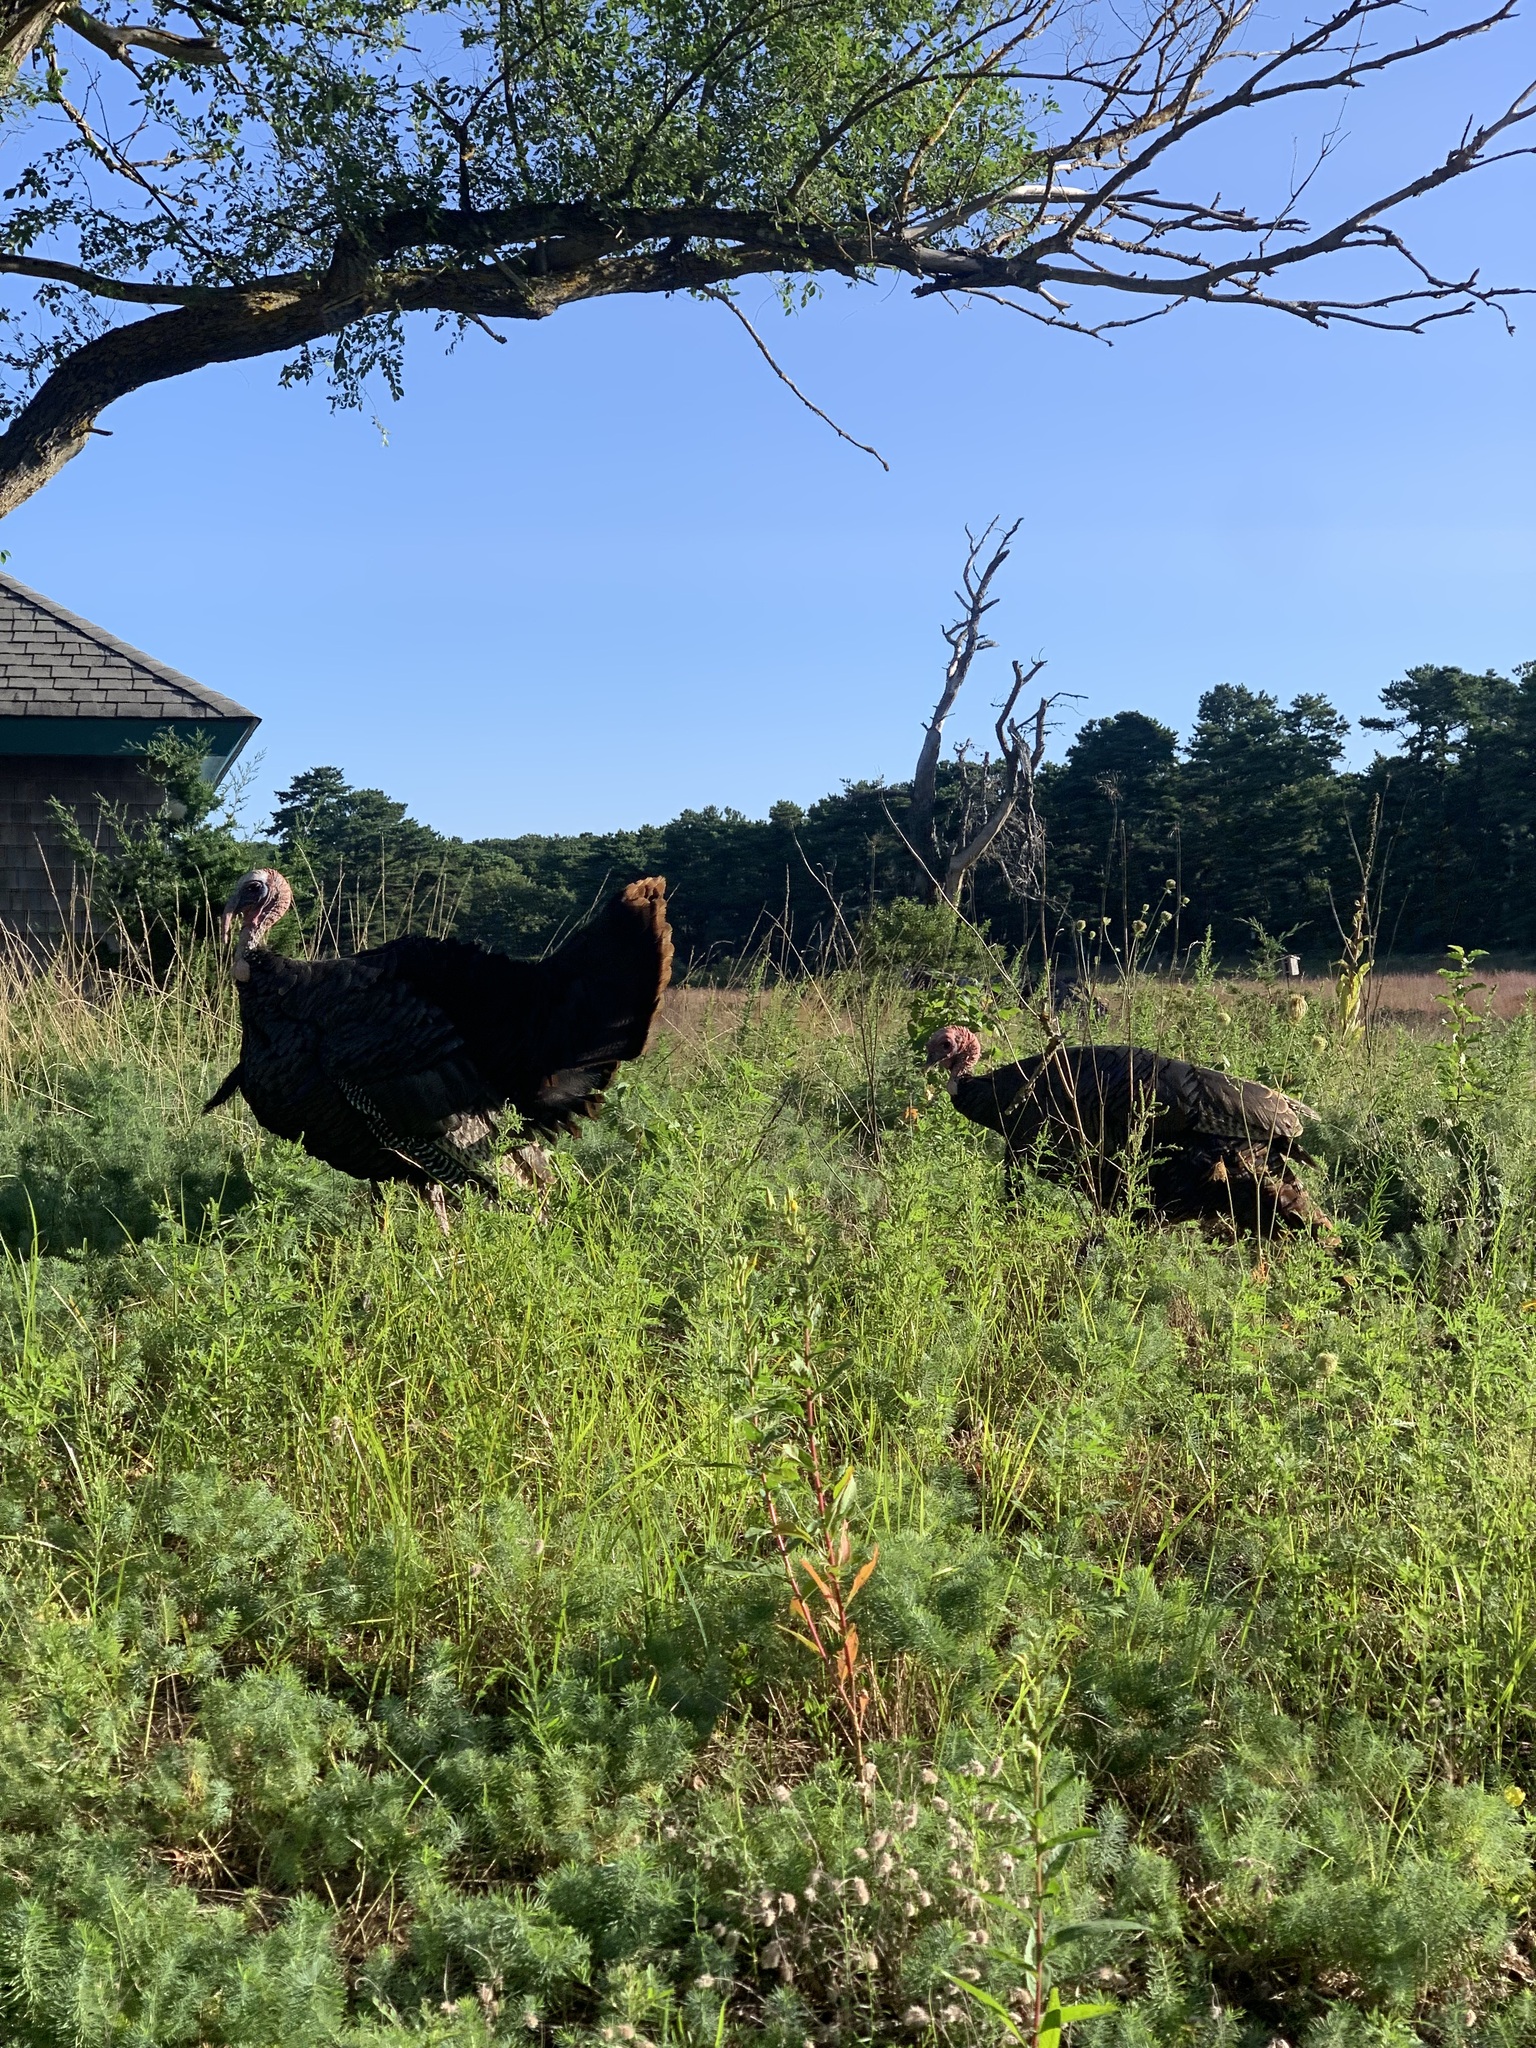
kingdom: Animalia
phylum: Chordata
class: Aves
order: Galliformes
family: Phasianidae
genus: Meleagris
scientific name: Meleagris gallopavo
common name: Wild turkey
